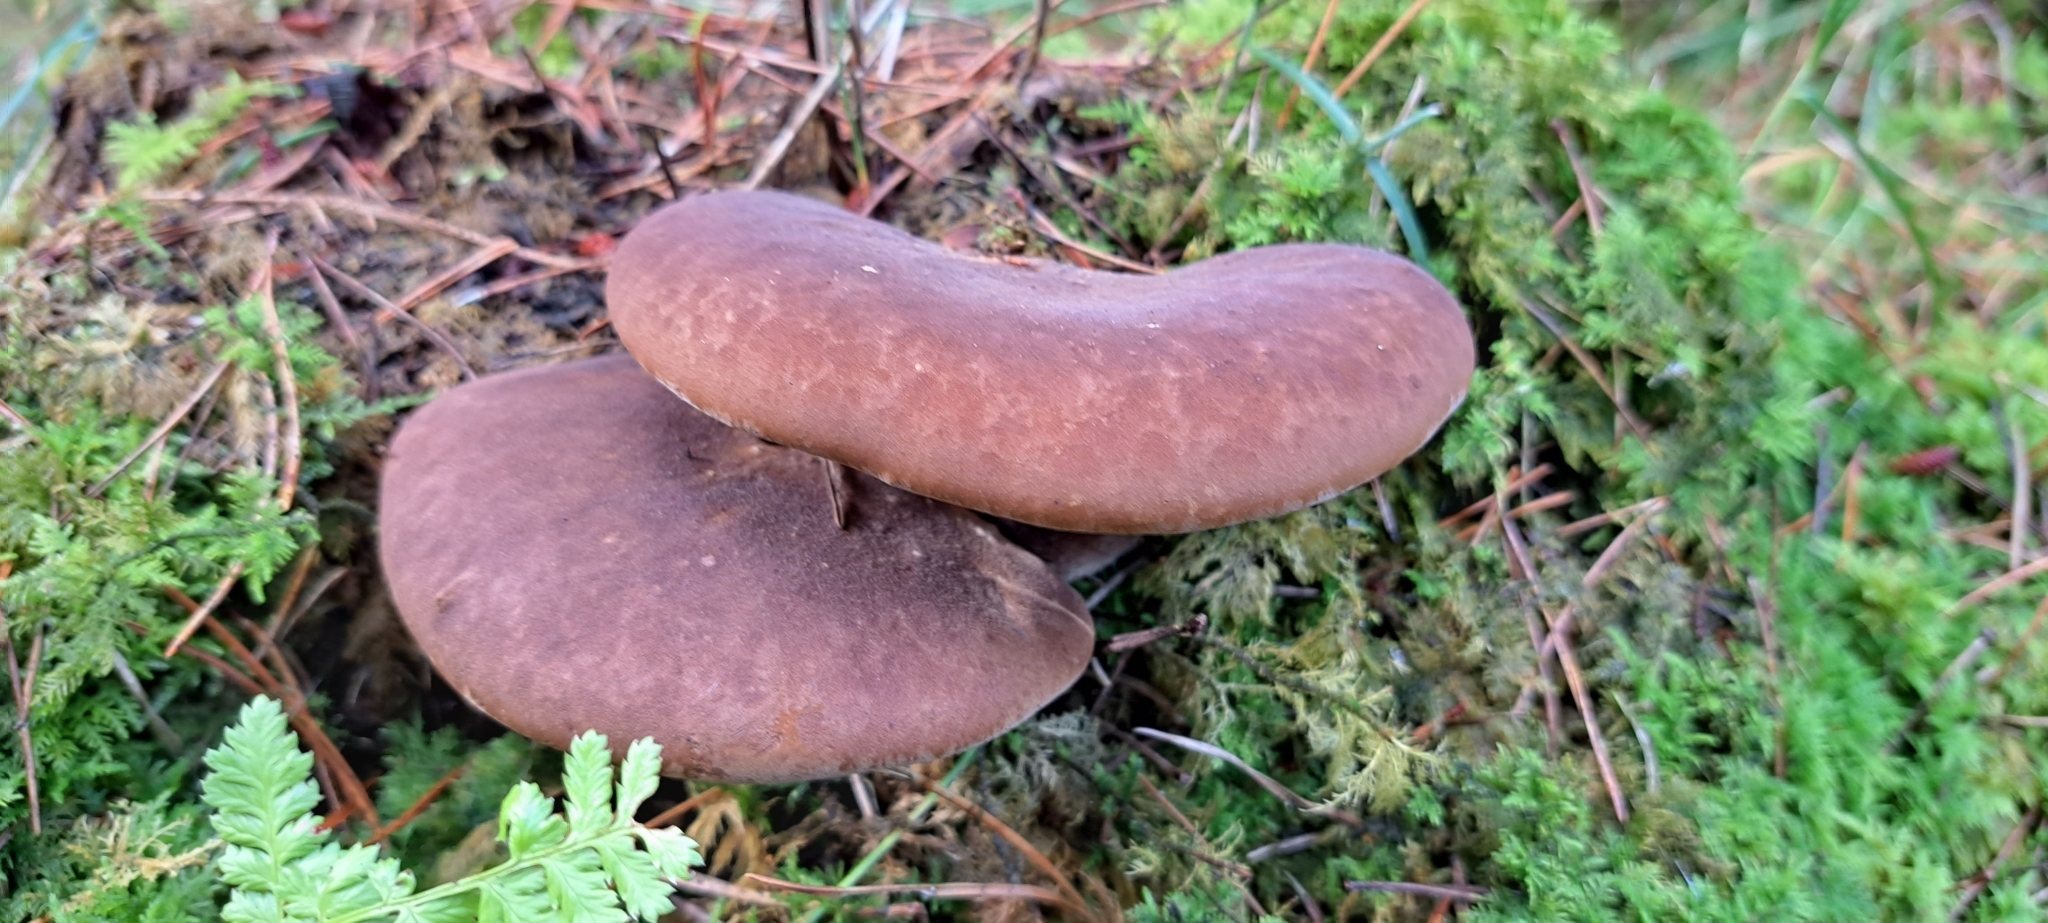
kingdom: Fungi
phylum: Basidiomycota
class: Agaricomycetes
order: Boletales
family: Tapinellaceae
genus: Tapinella
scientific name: Tapinella atrotomentosa
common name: Velvet rollrim
